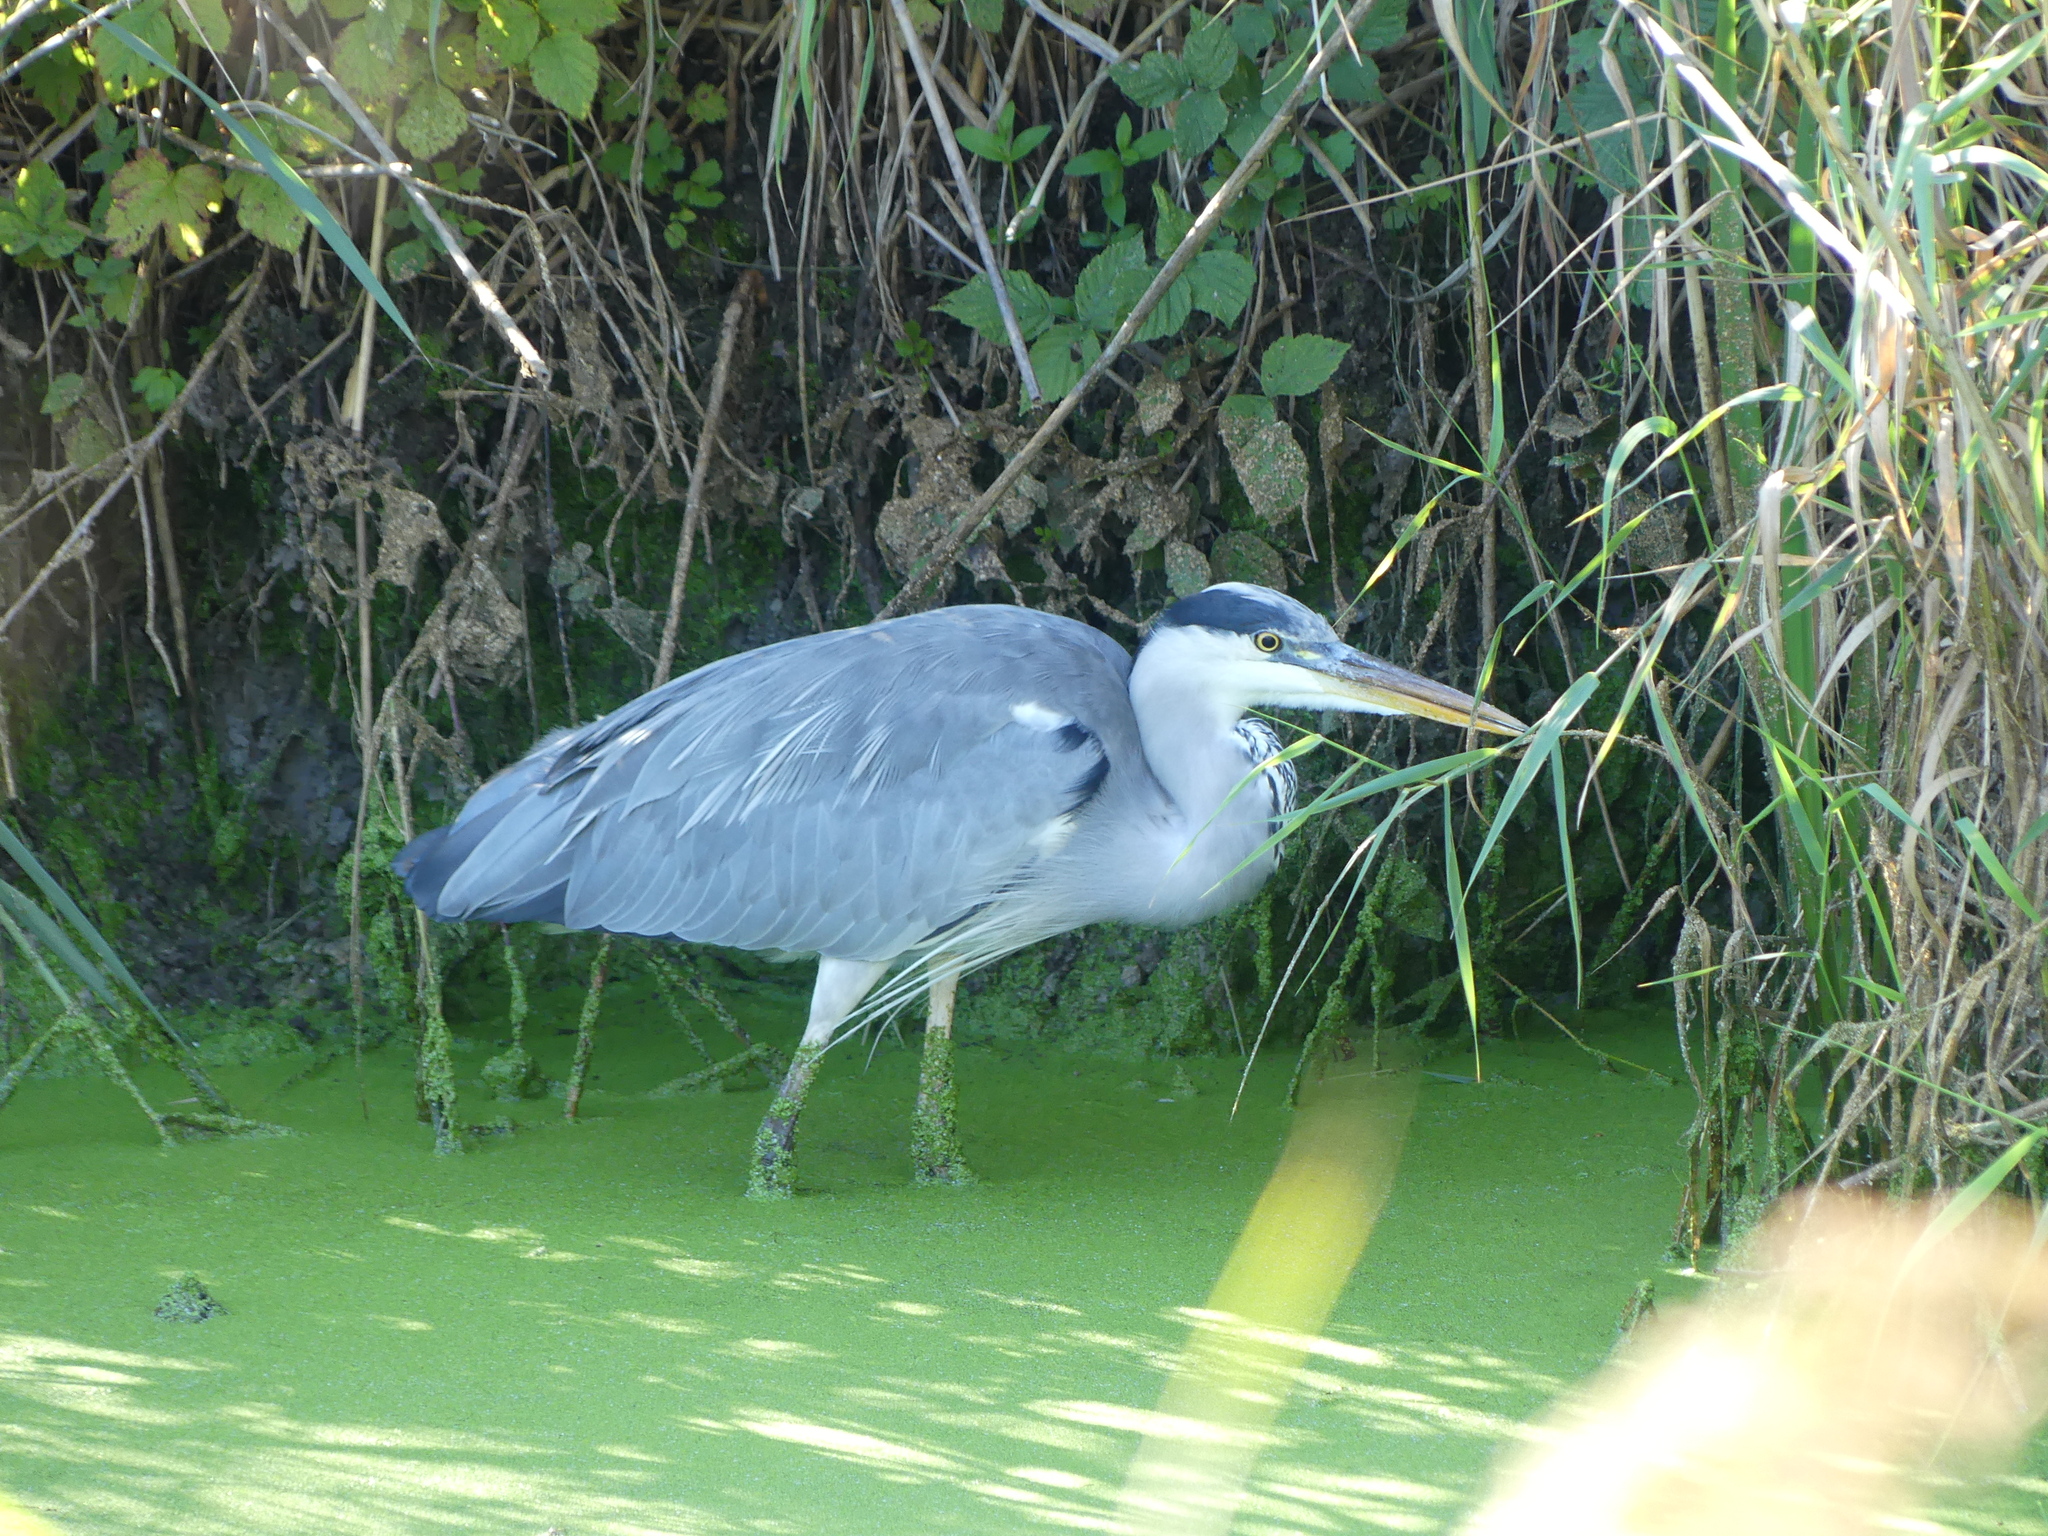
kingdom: Animalia
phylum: Chordata
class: Aves
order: Pelecaniformes
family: Ardeidae
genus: Ardea
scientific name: Ardea cinerea
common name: Grey heron
